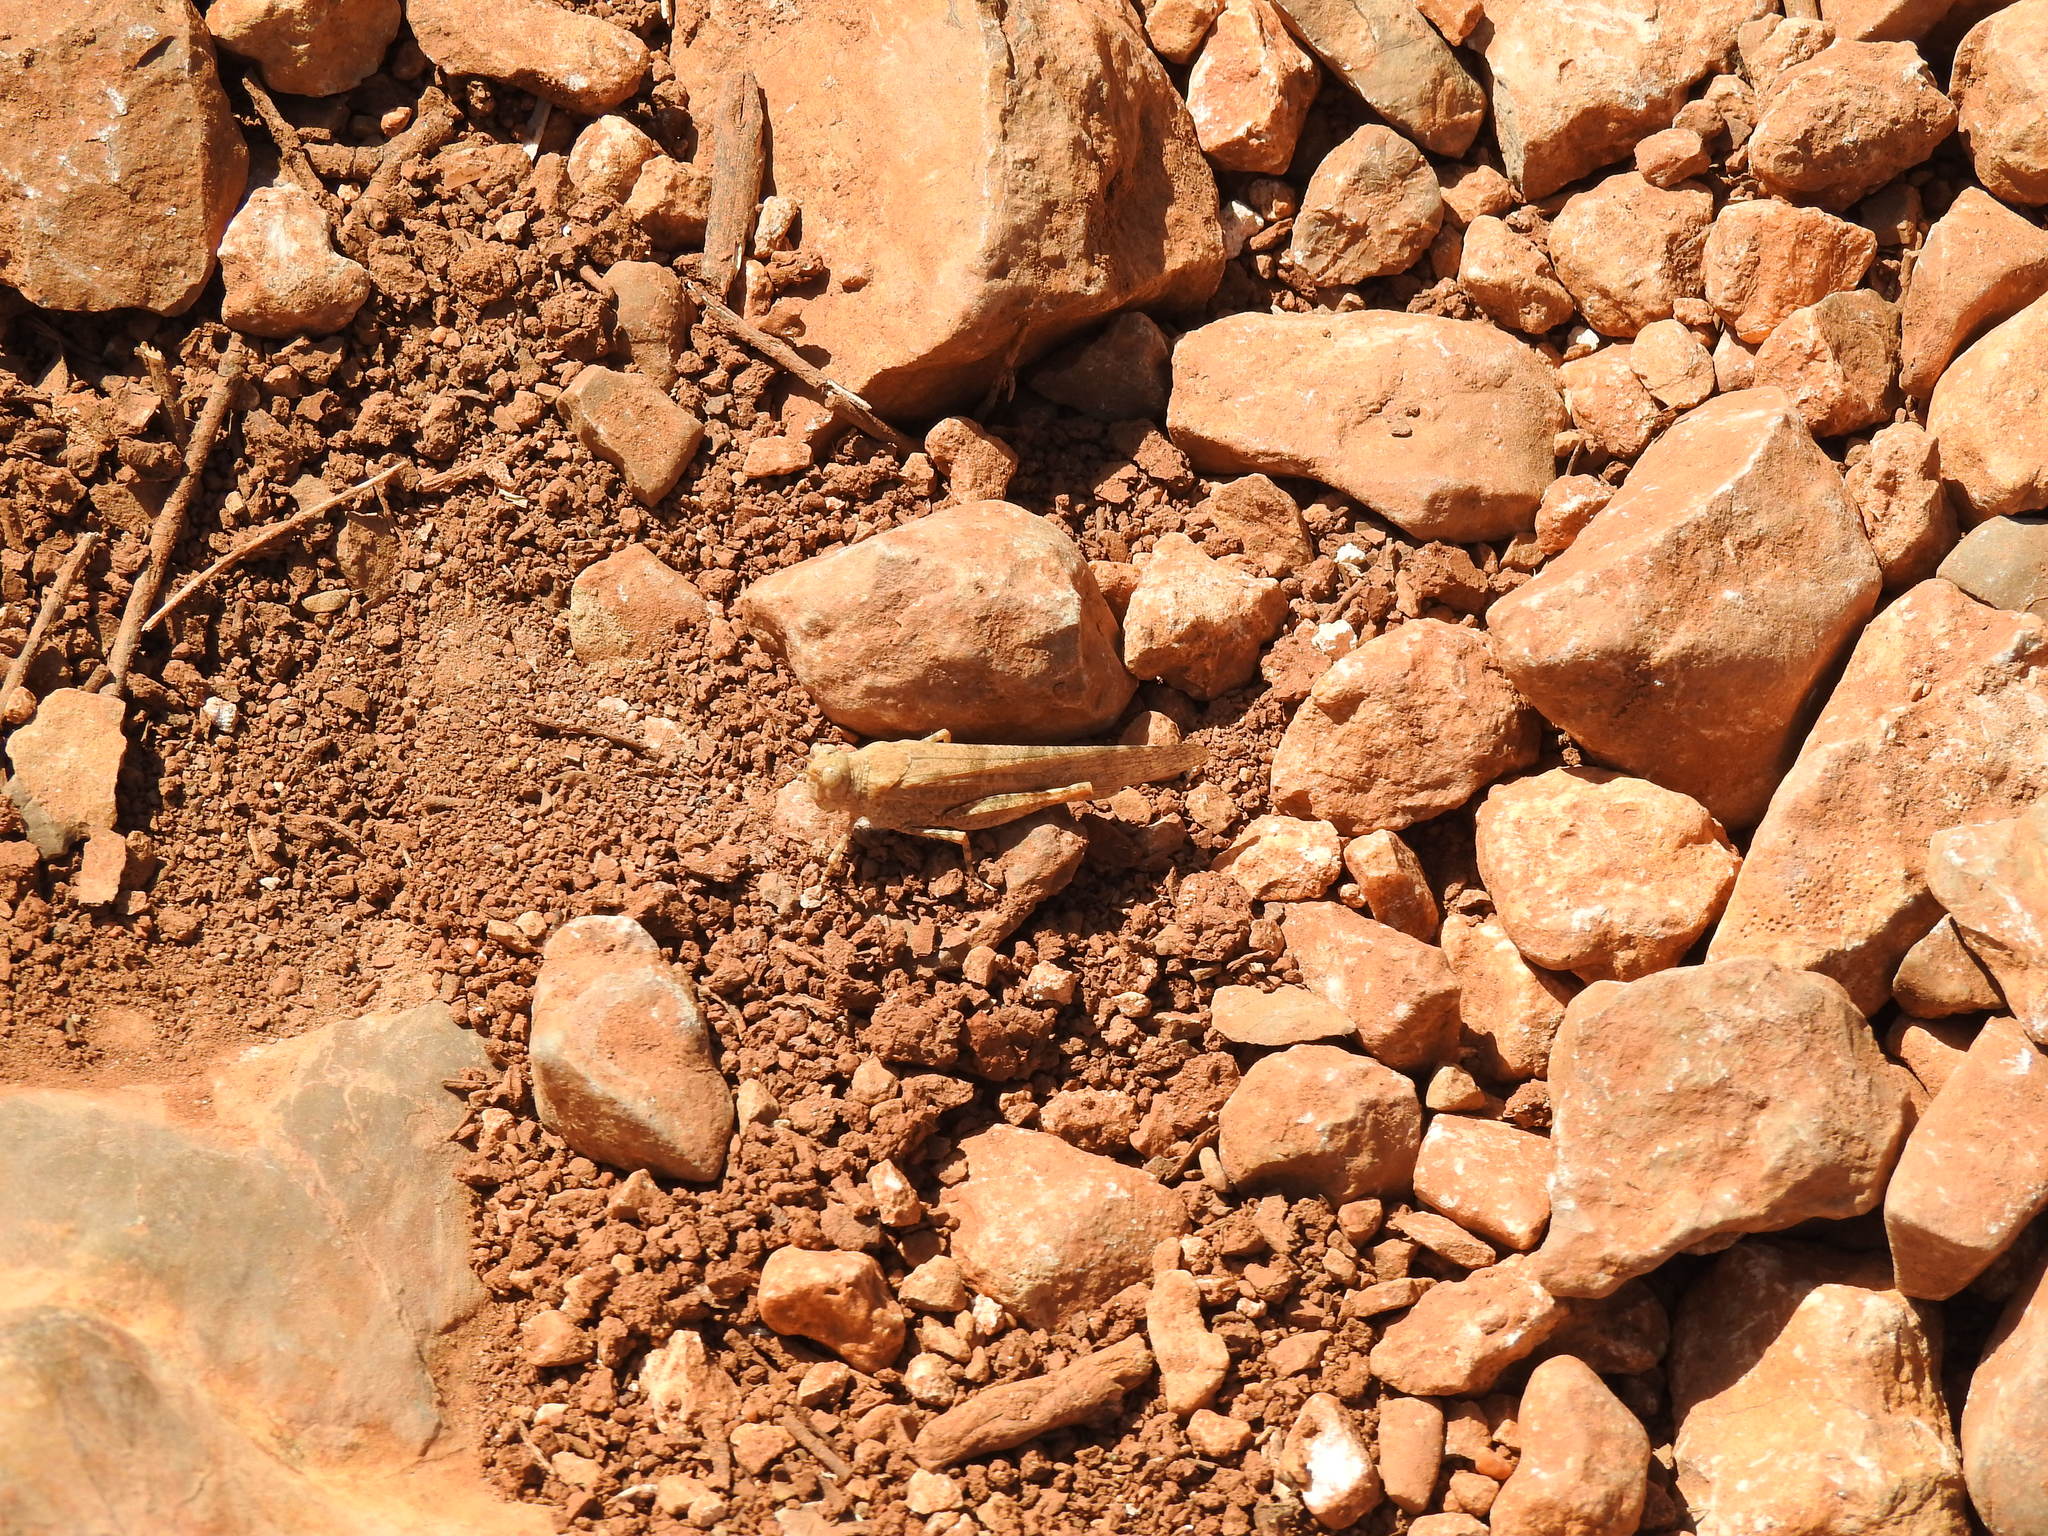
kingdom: Animalia
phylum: Arthropoda
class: Insecta
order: Orthoptera
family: Acrididae
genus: Sphingonotus
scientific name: Sphingonotus rubescens
